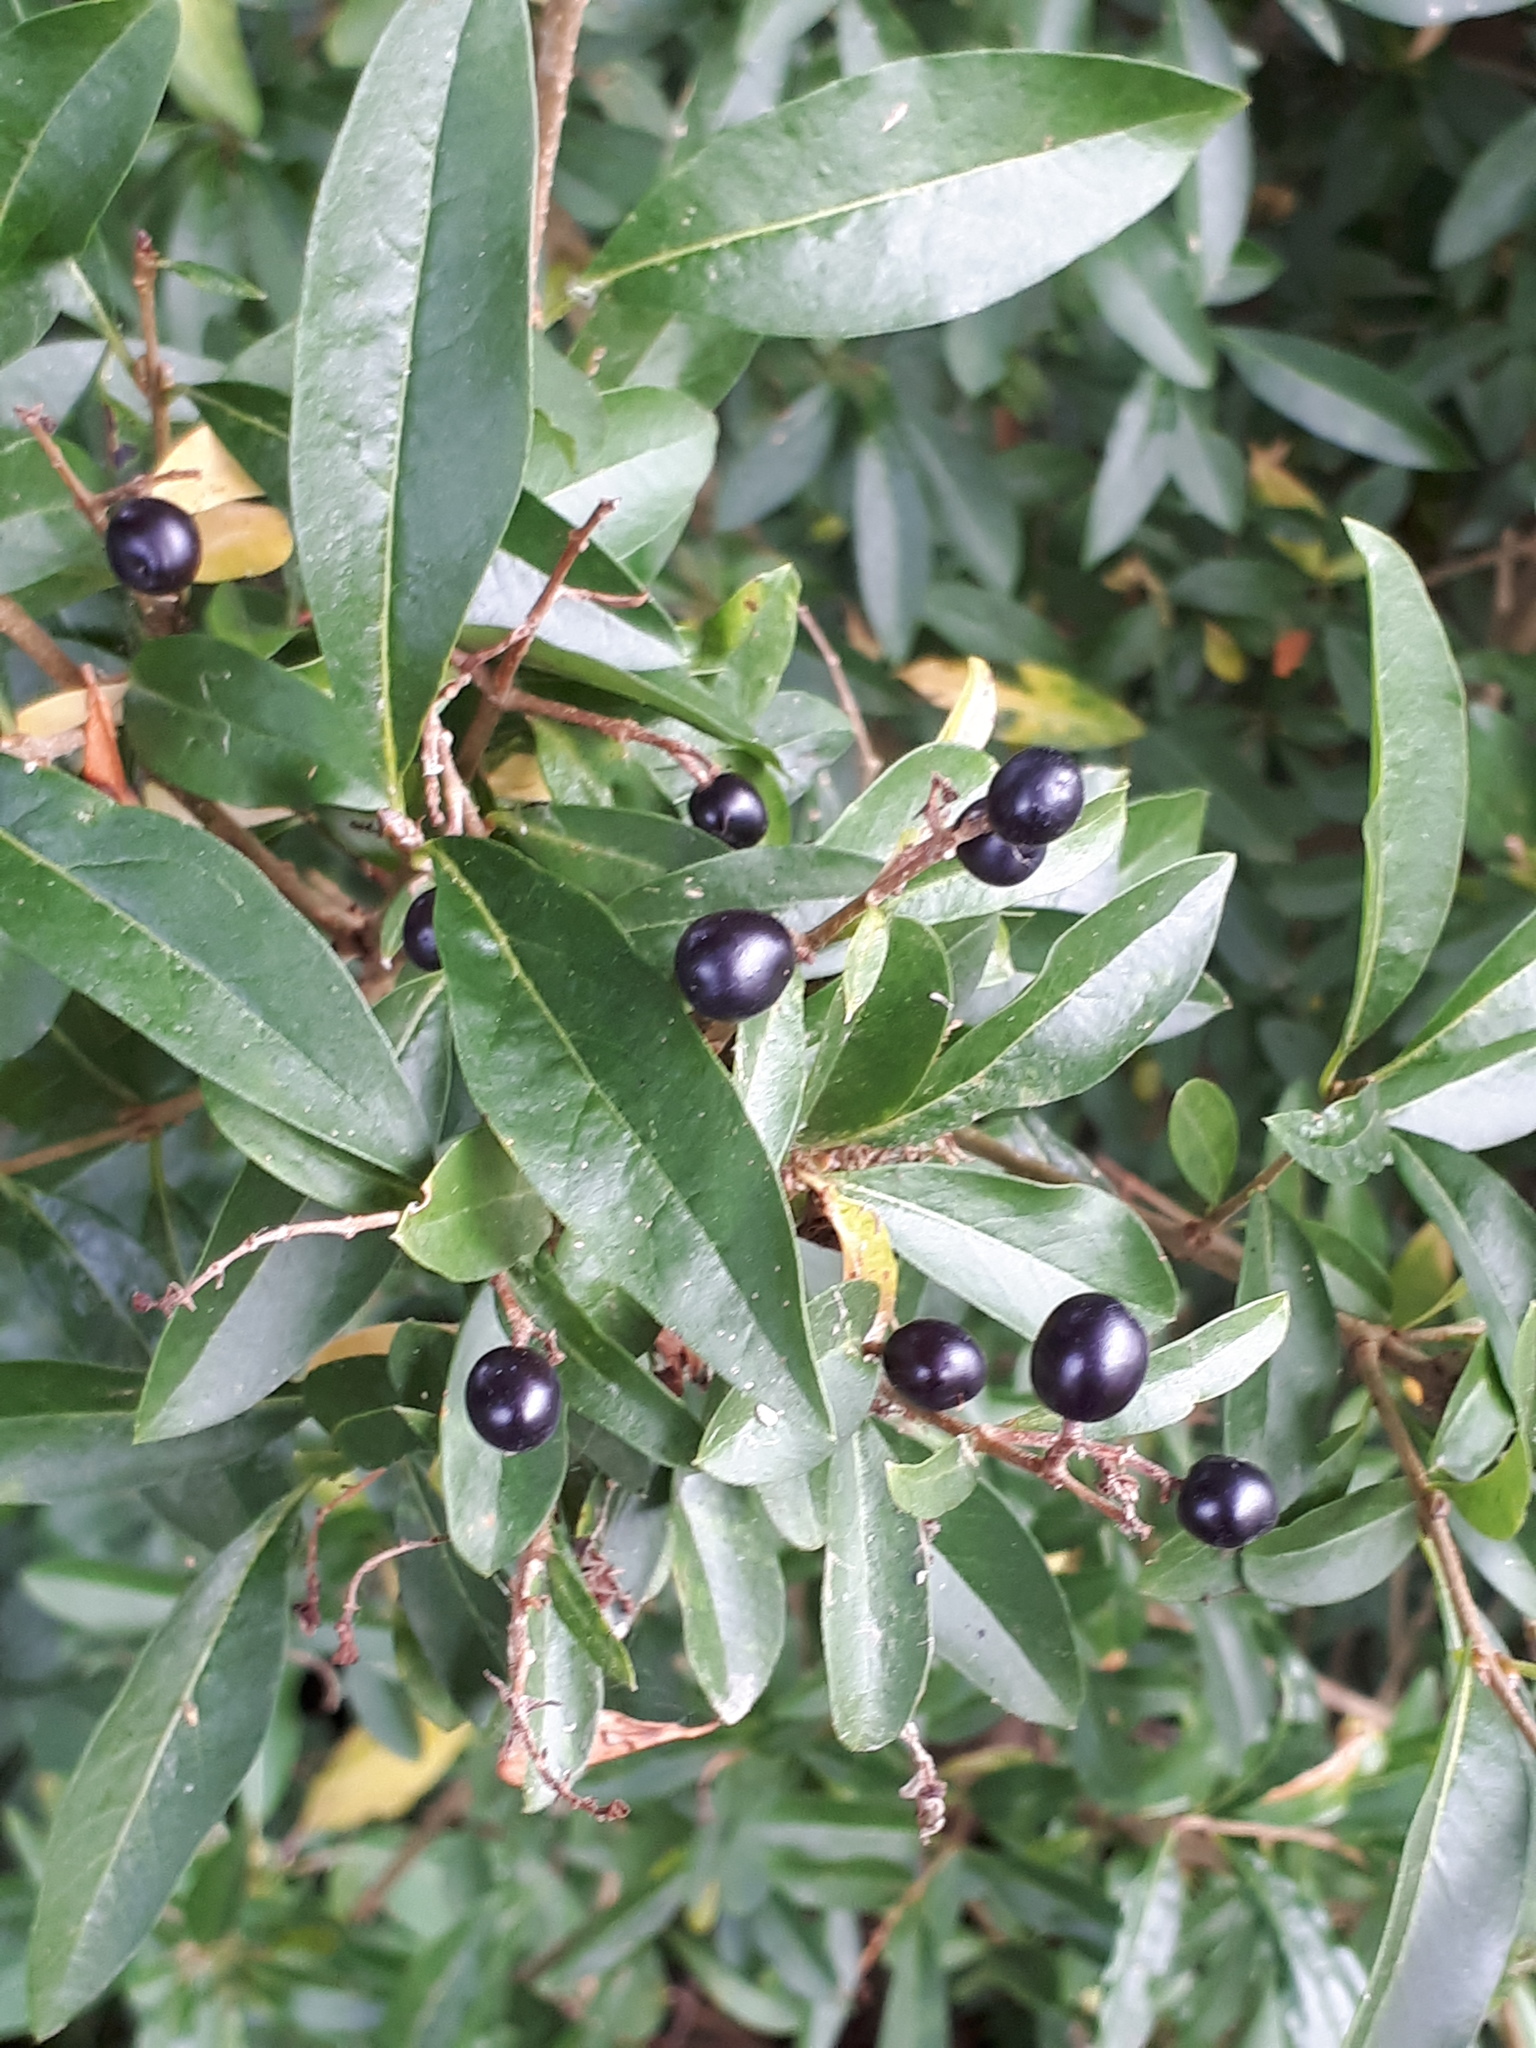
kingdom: Plantae
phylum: Tracheophyta
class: Magnoliopsida
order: Lamiales
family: Oleaceae
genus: Ligustrum
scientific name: Ligustrum vulgare
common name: Wild privet
